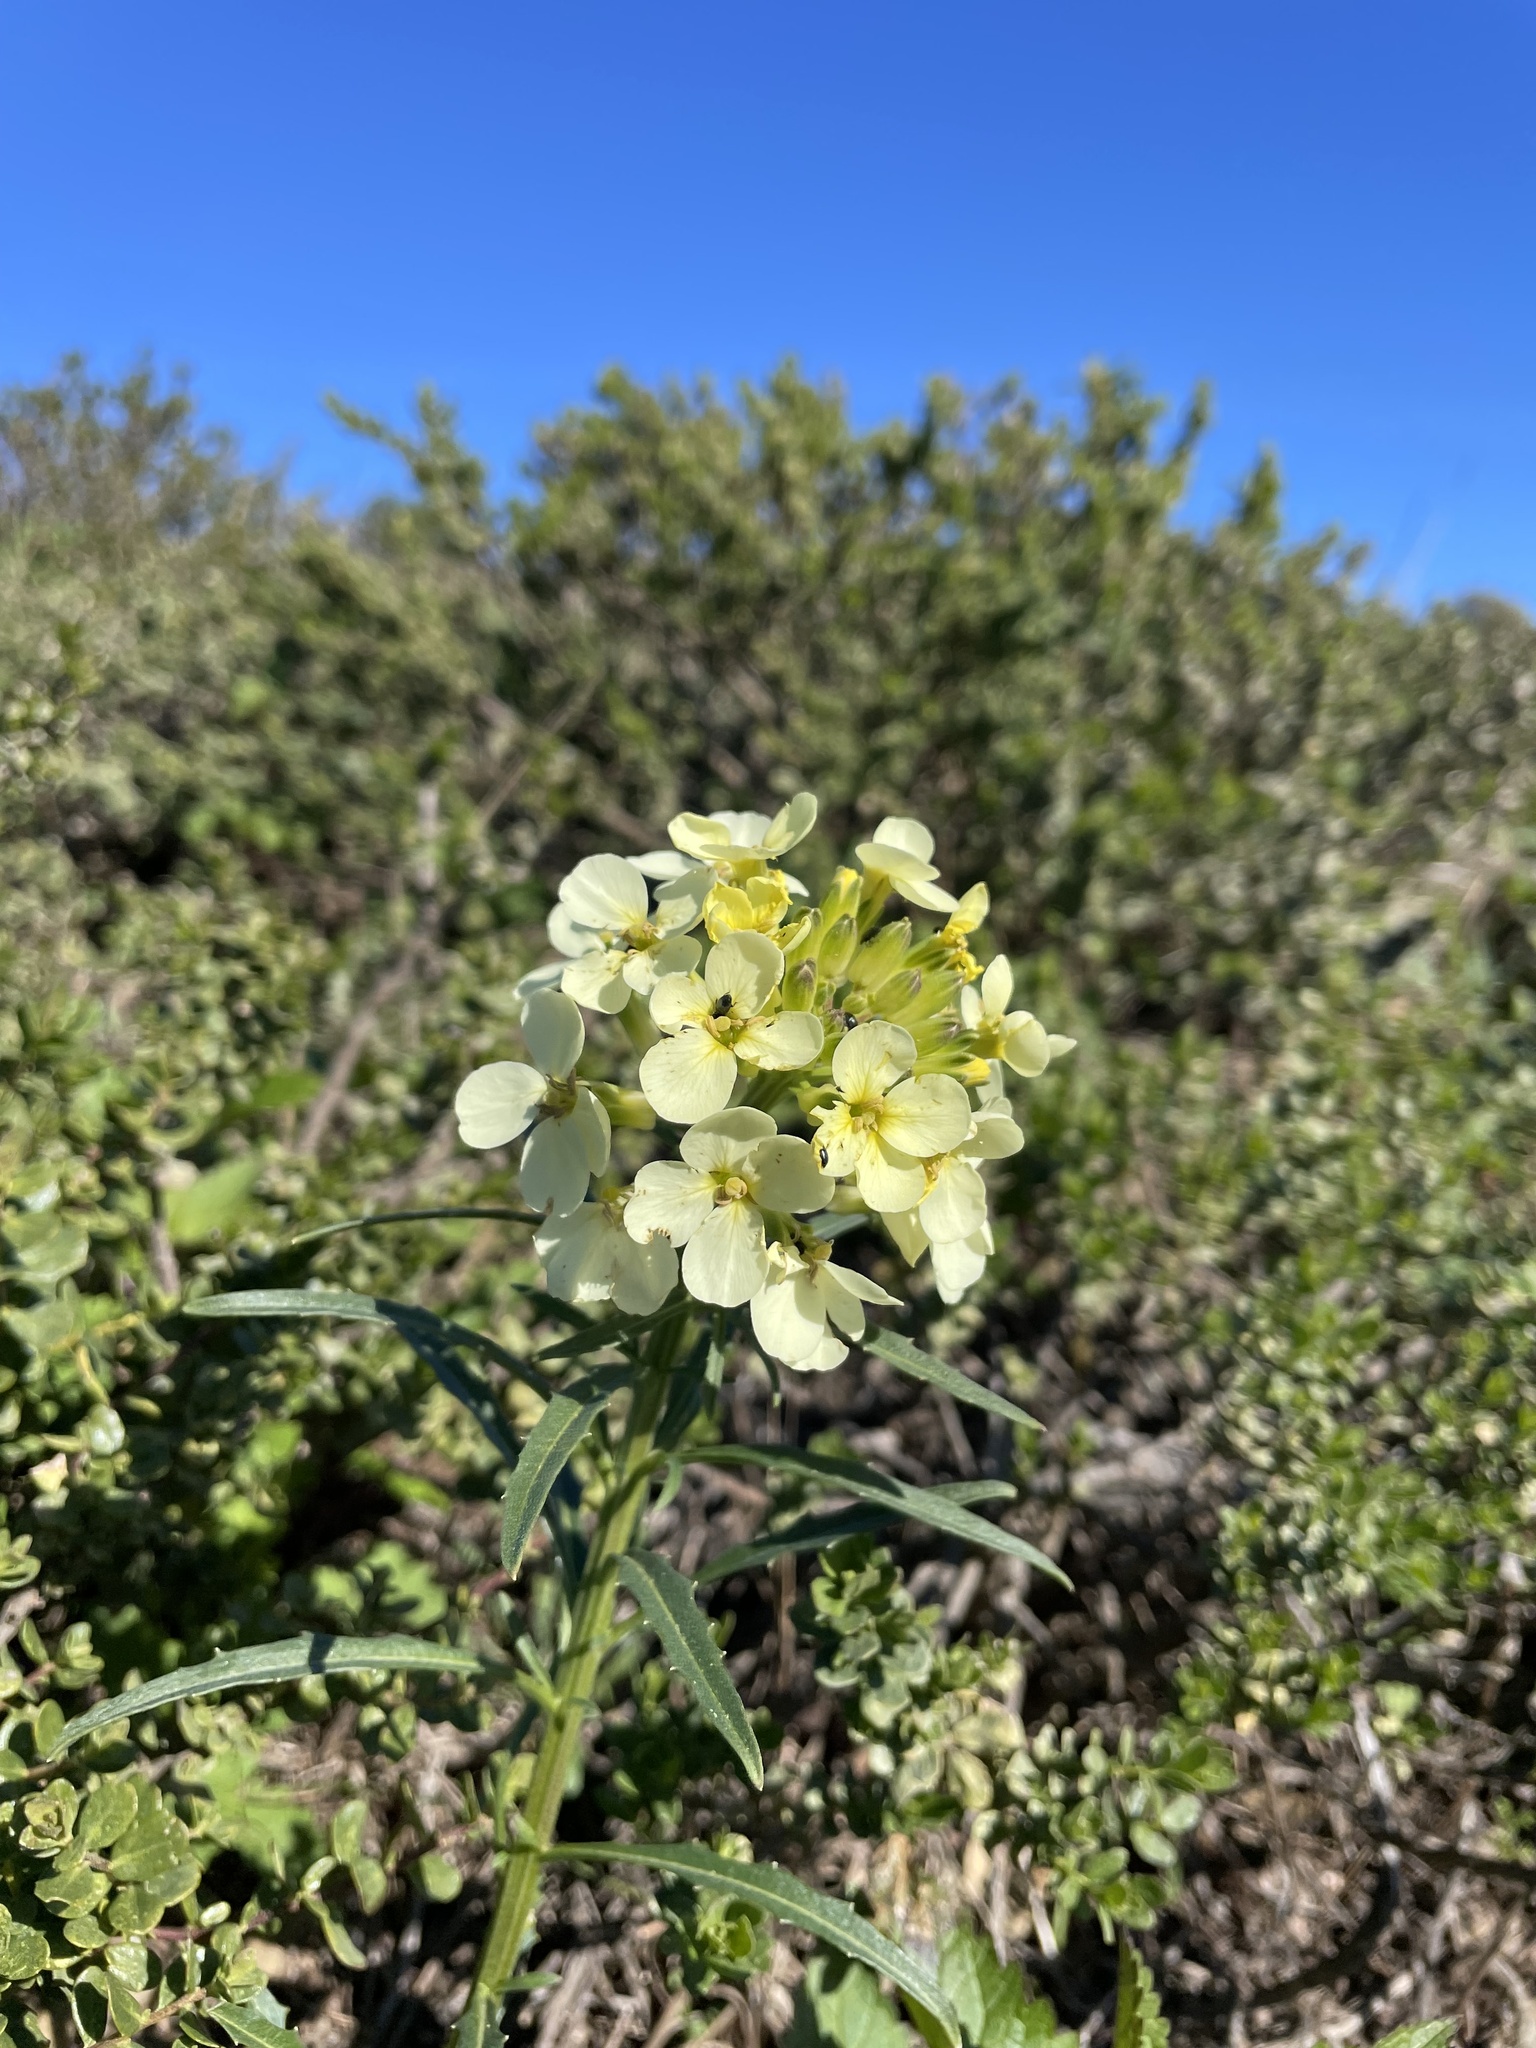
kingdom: Plantae
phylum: Tracheophyta
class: Magnoliopsida
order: Brassicales
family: Brassicaceae
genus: Erysimum
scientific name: Erysimum franciscanum
